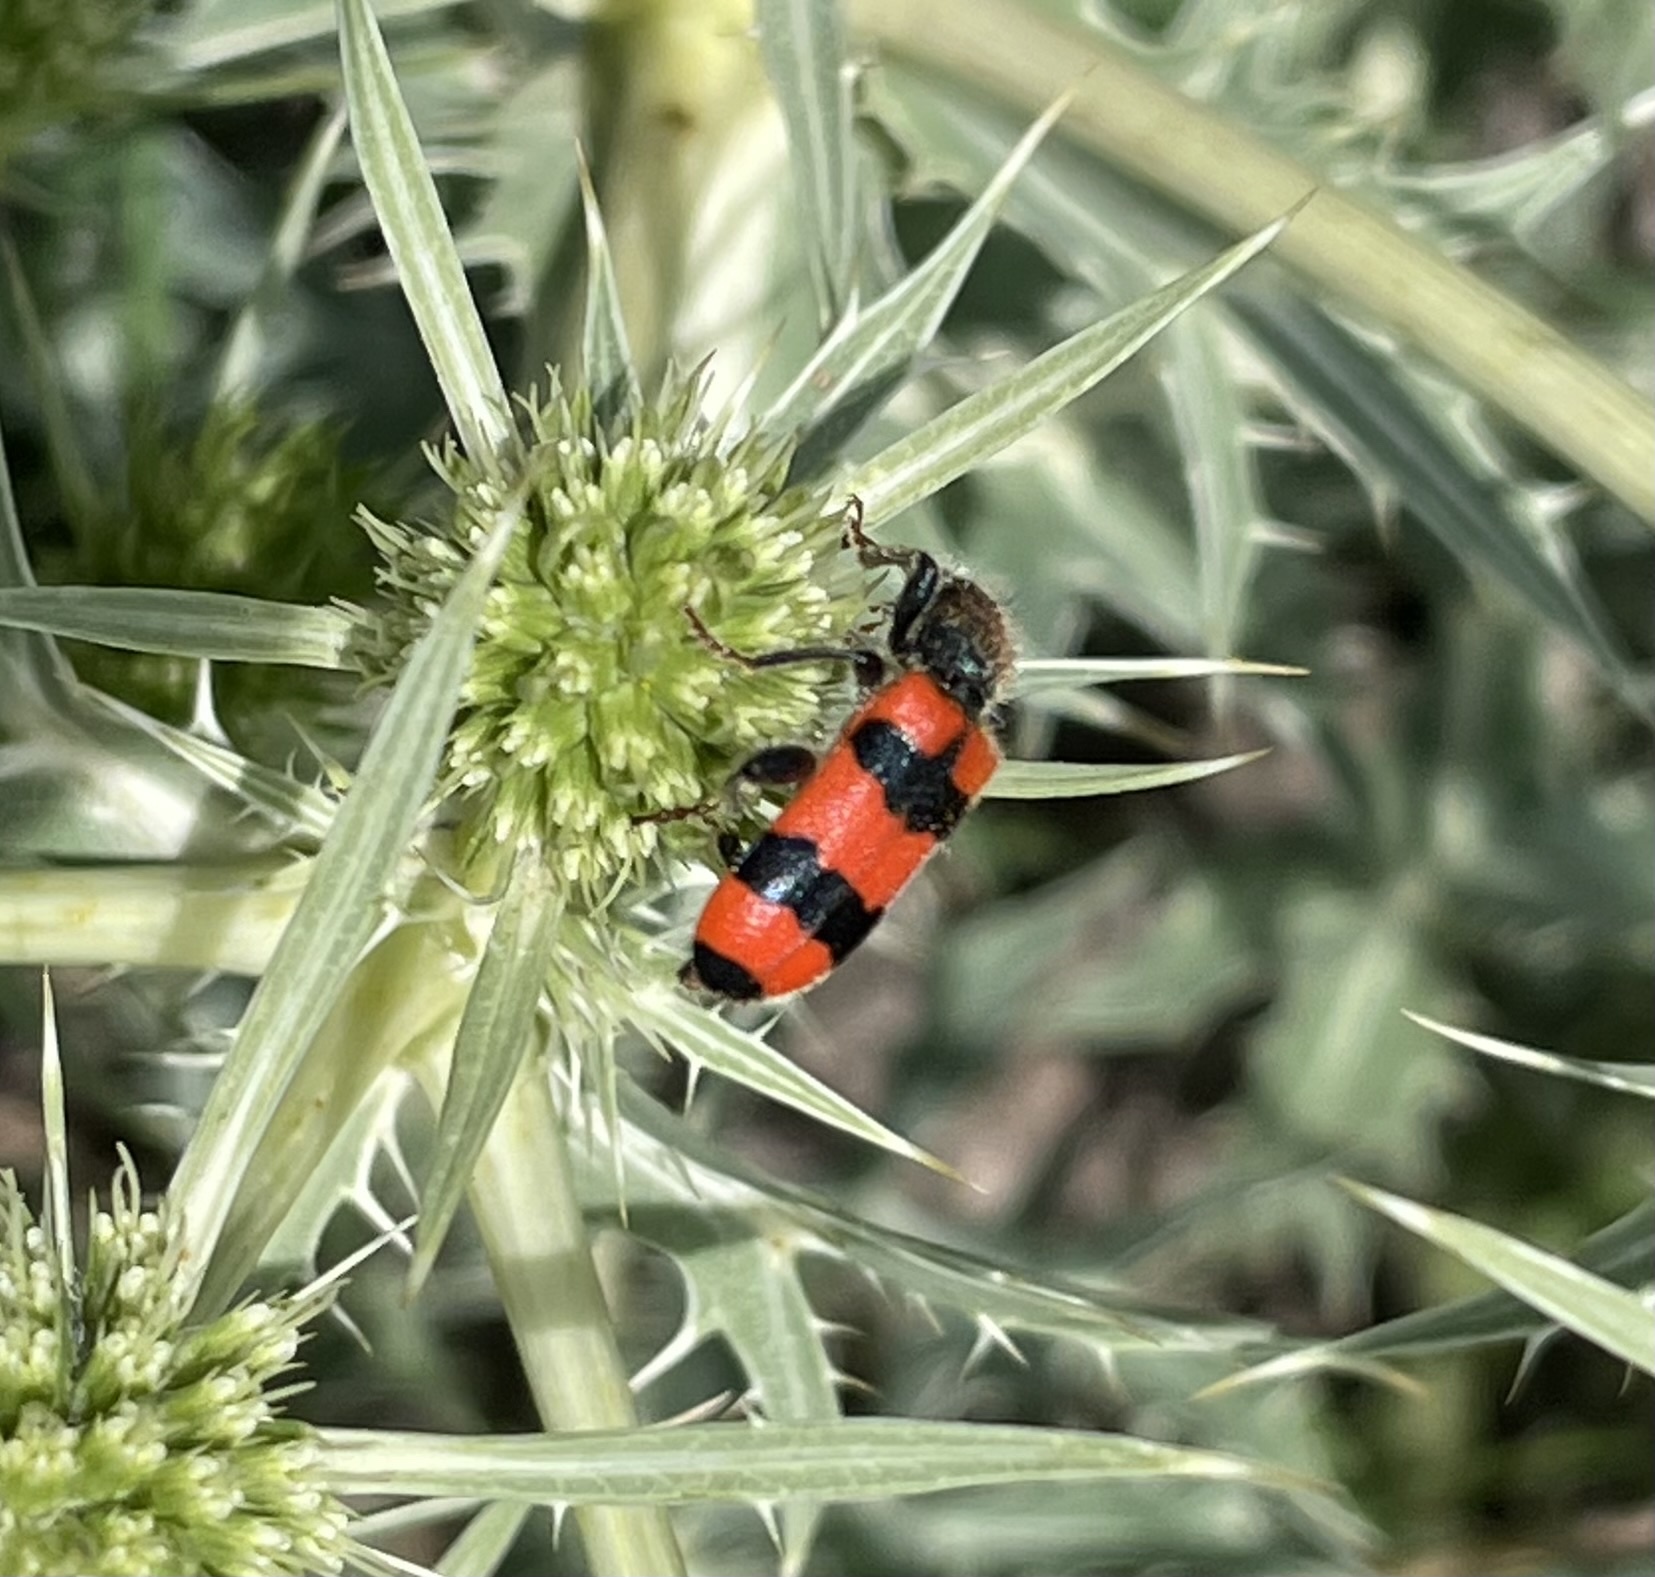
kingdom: Animalia
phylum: Arthropoda
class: Insecta
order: Coleoptera
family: Cleridae
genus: Trichodes
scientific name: Trichodes apiarius
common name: Bee-eating beetle
